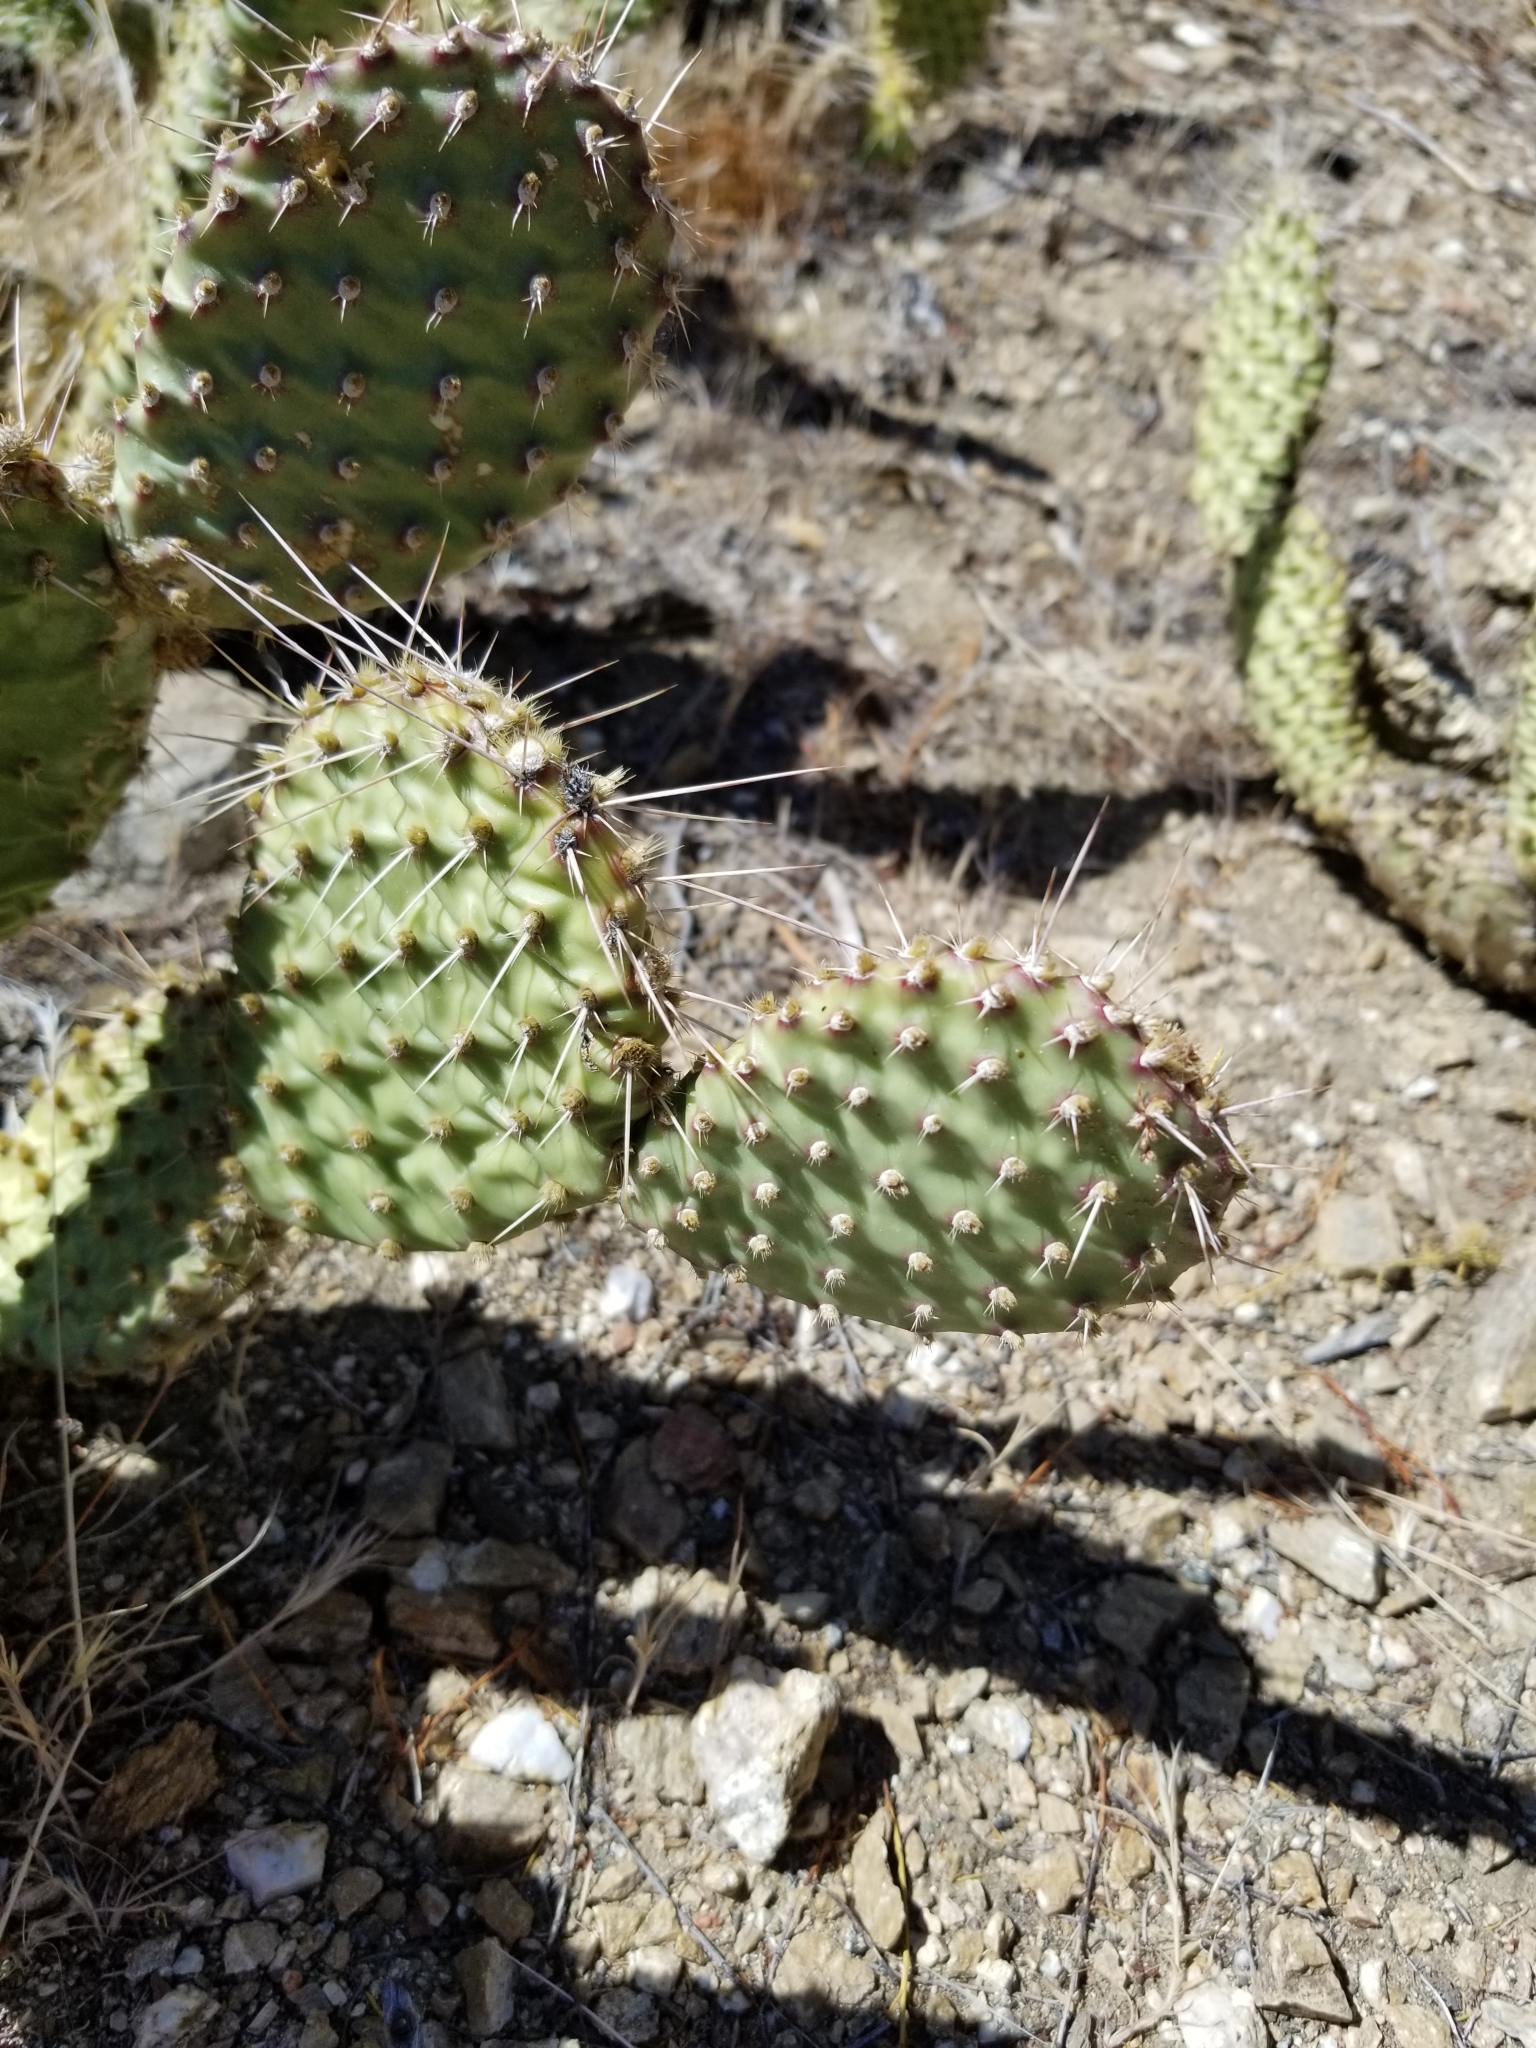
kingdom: Plantae
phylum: Tracheophyta
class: Magnoliopsida
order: Caryophyllales
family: Cactaceae
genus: Opuntia
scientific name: Opuntia polyacantha
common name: Plains prickly-pear
